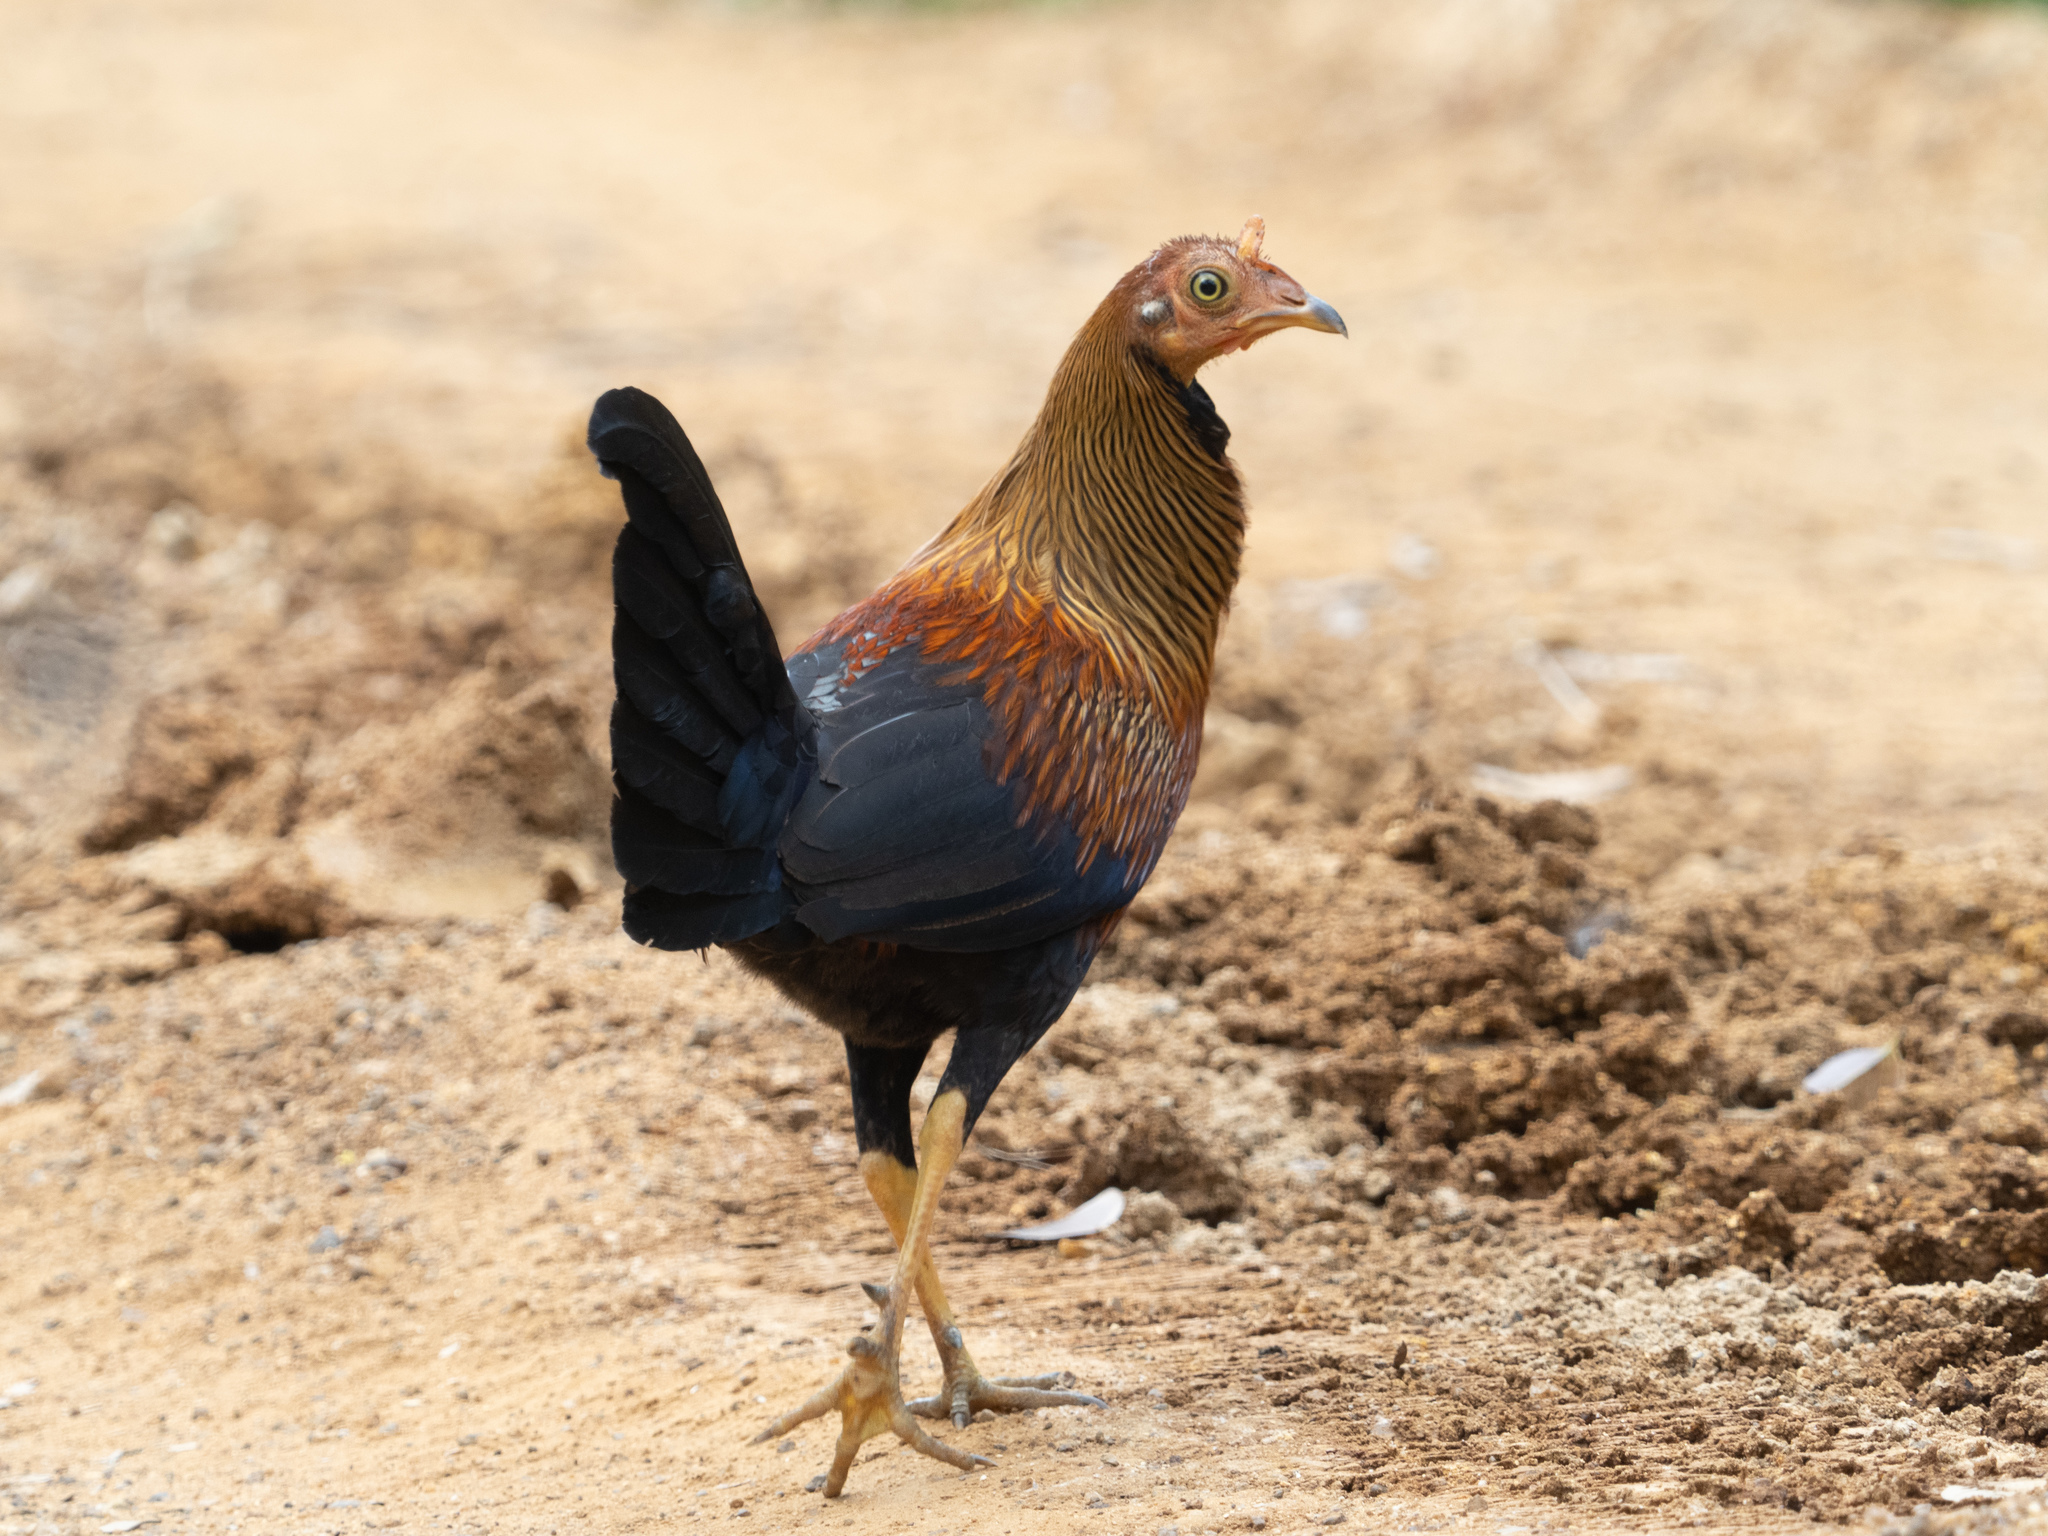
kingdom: Animalia
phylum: Chordata
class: Aves
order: Galliformes
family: Phasianidae
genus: Gallus
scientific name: Gallus lafayettii
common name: Sri lanka junglefowl
